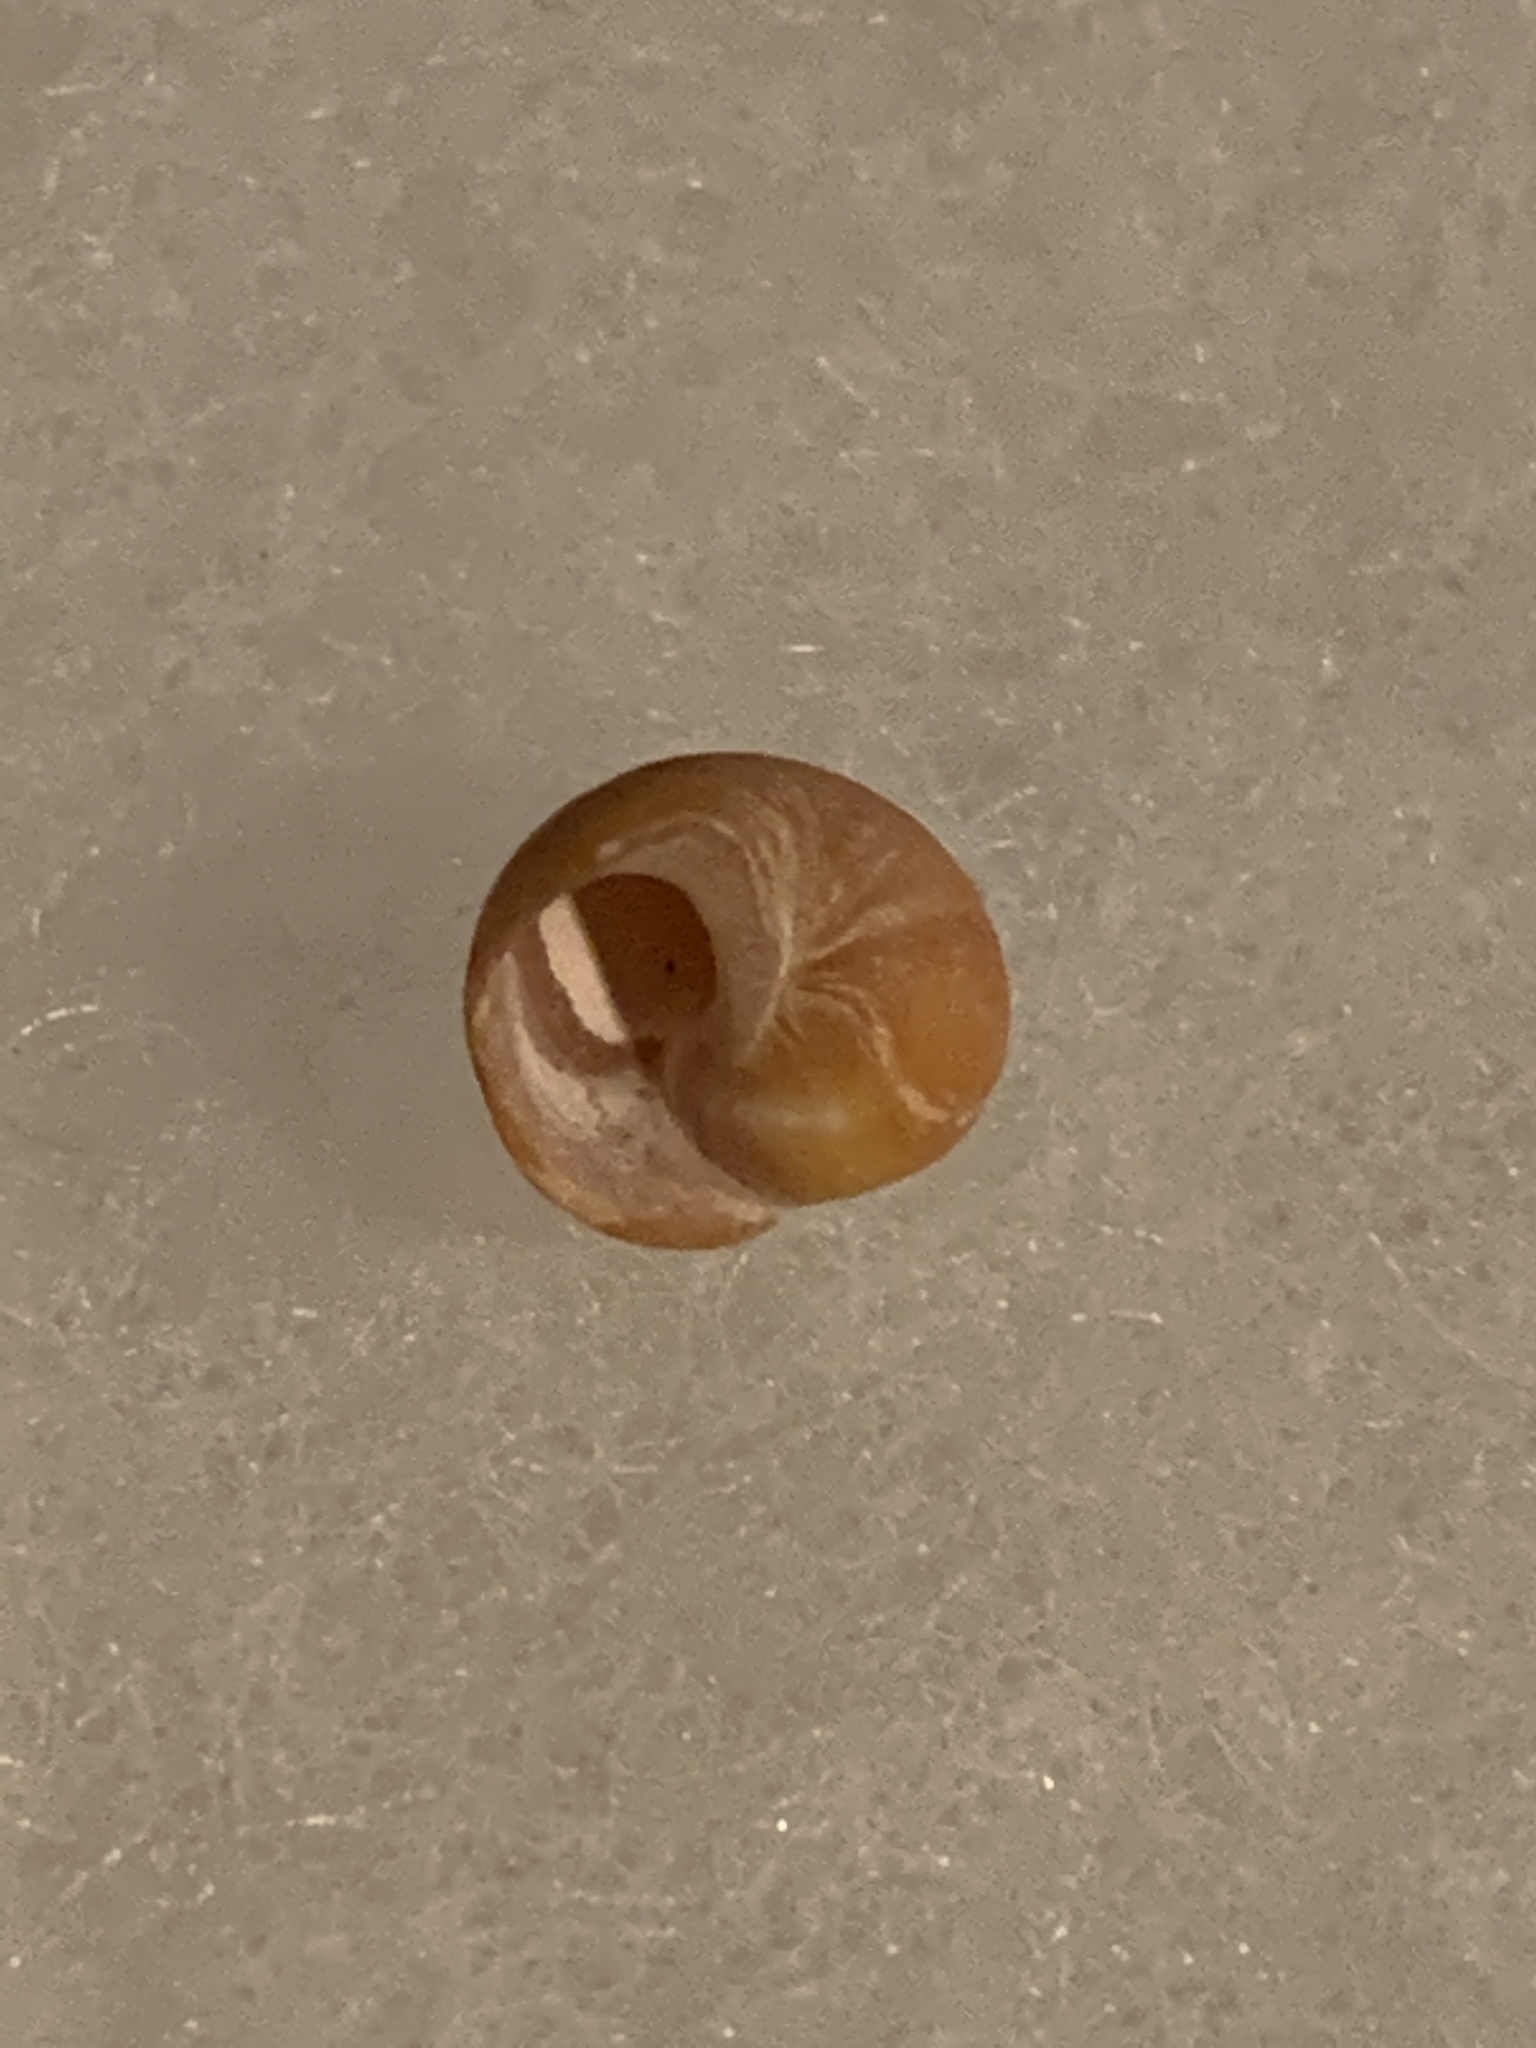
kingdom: Animalia
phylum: Mollusca
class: Gastropoda
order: Littorinimorpha
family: Littorinidae
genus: Littorina
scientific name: Littorina obtusata
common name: Flat periwinkle
